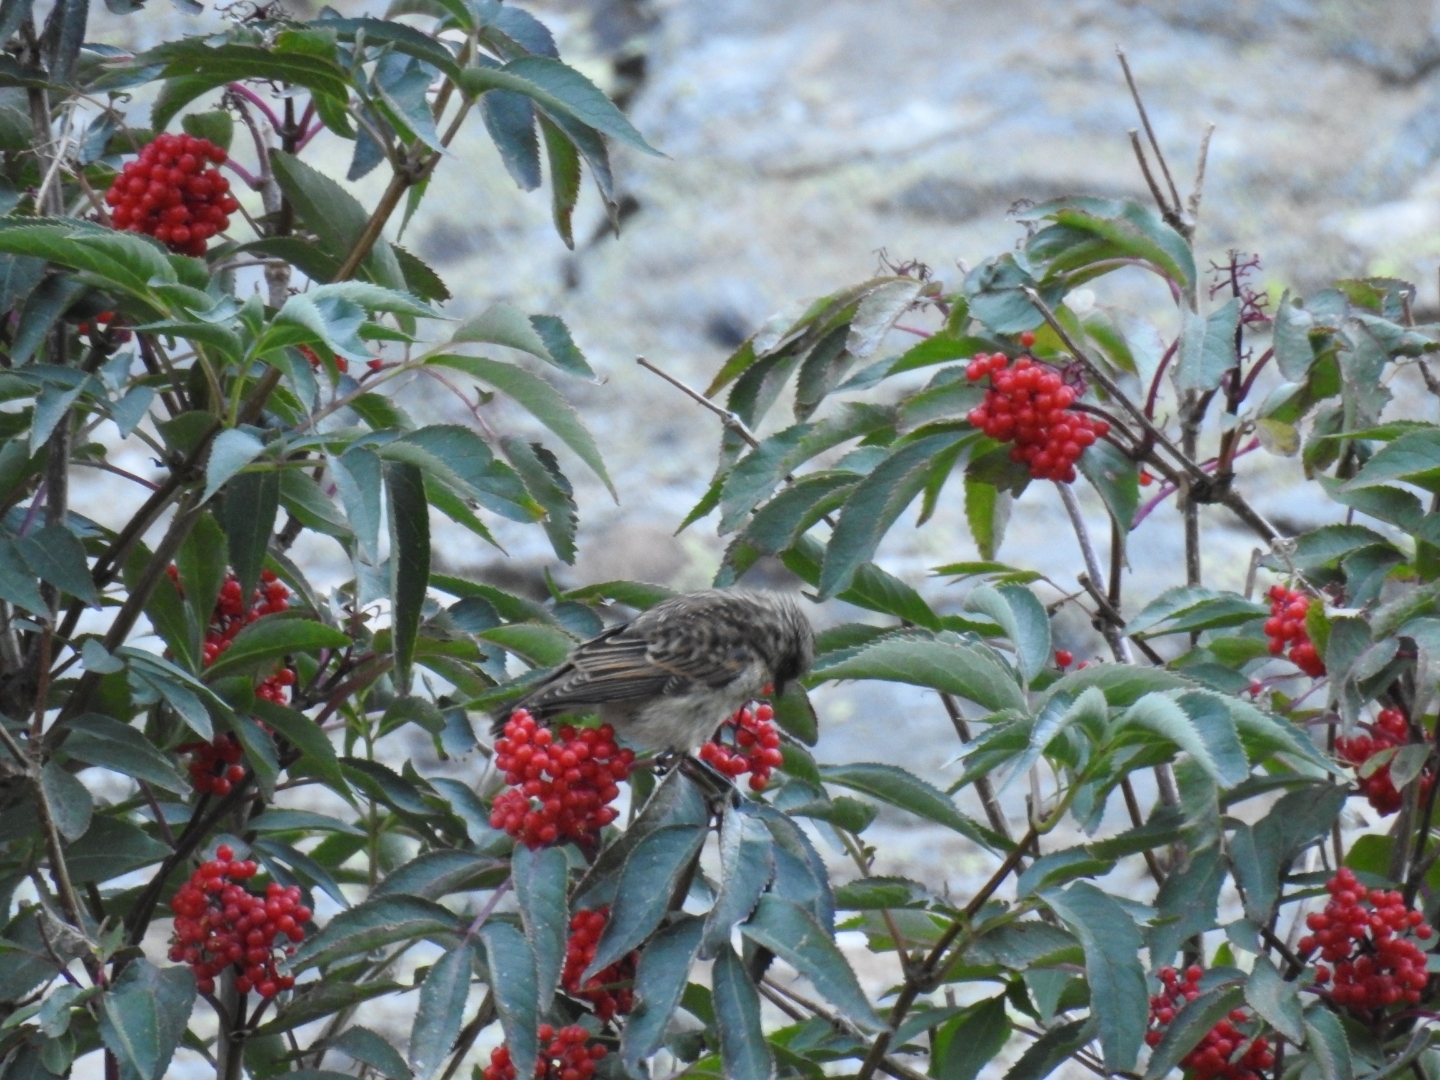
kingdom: Animalia
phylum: Chordata
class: Aves
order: Passeriformes
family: Muscicapidae
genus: Saxicola
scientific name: Saxicola rubetra
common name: Whinchat
